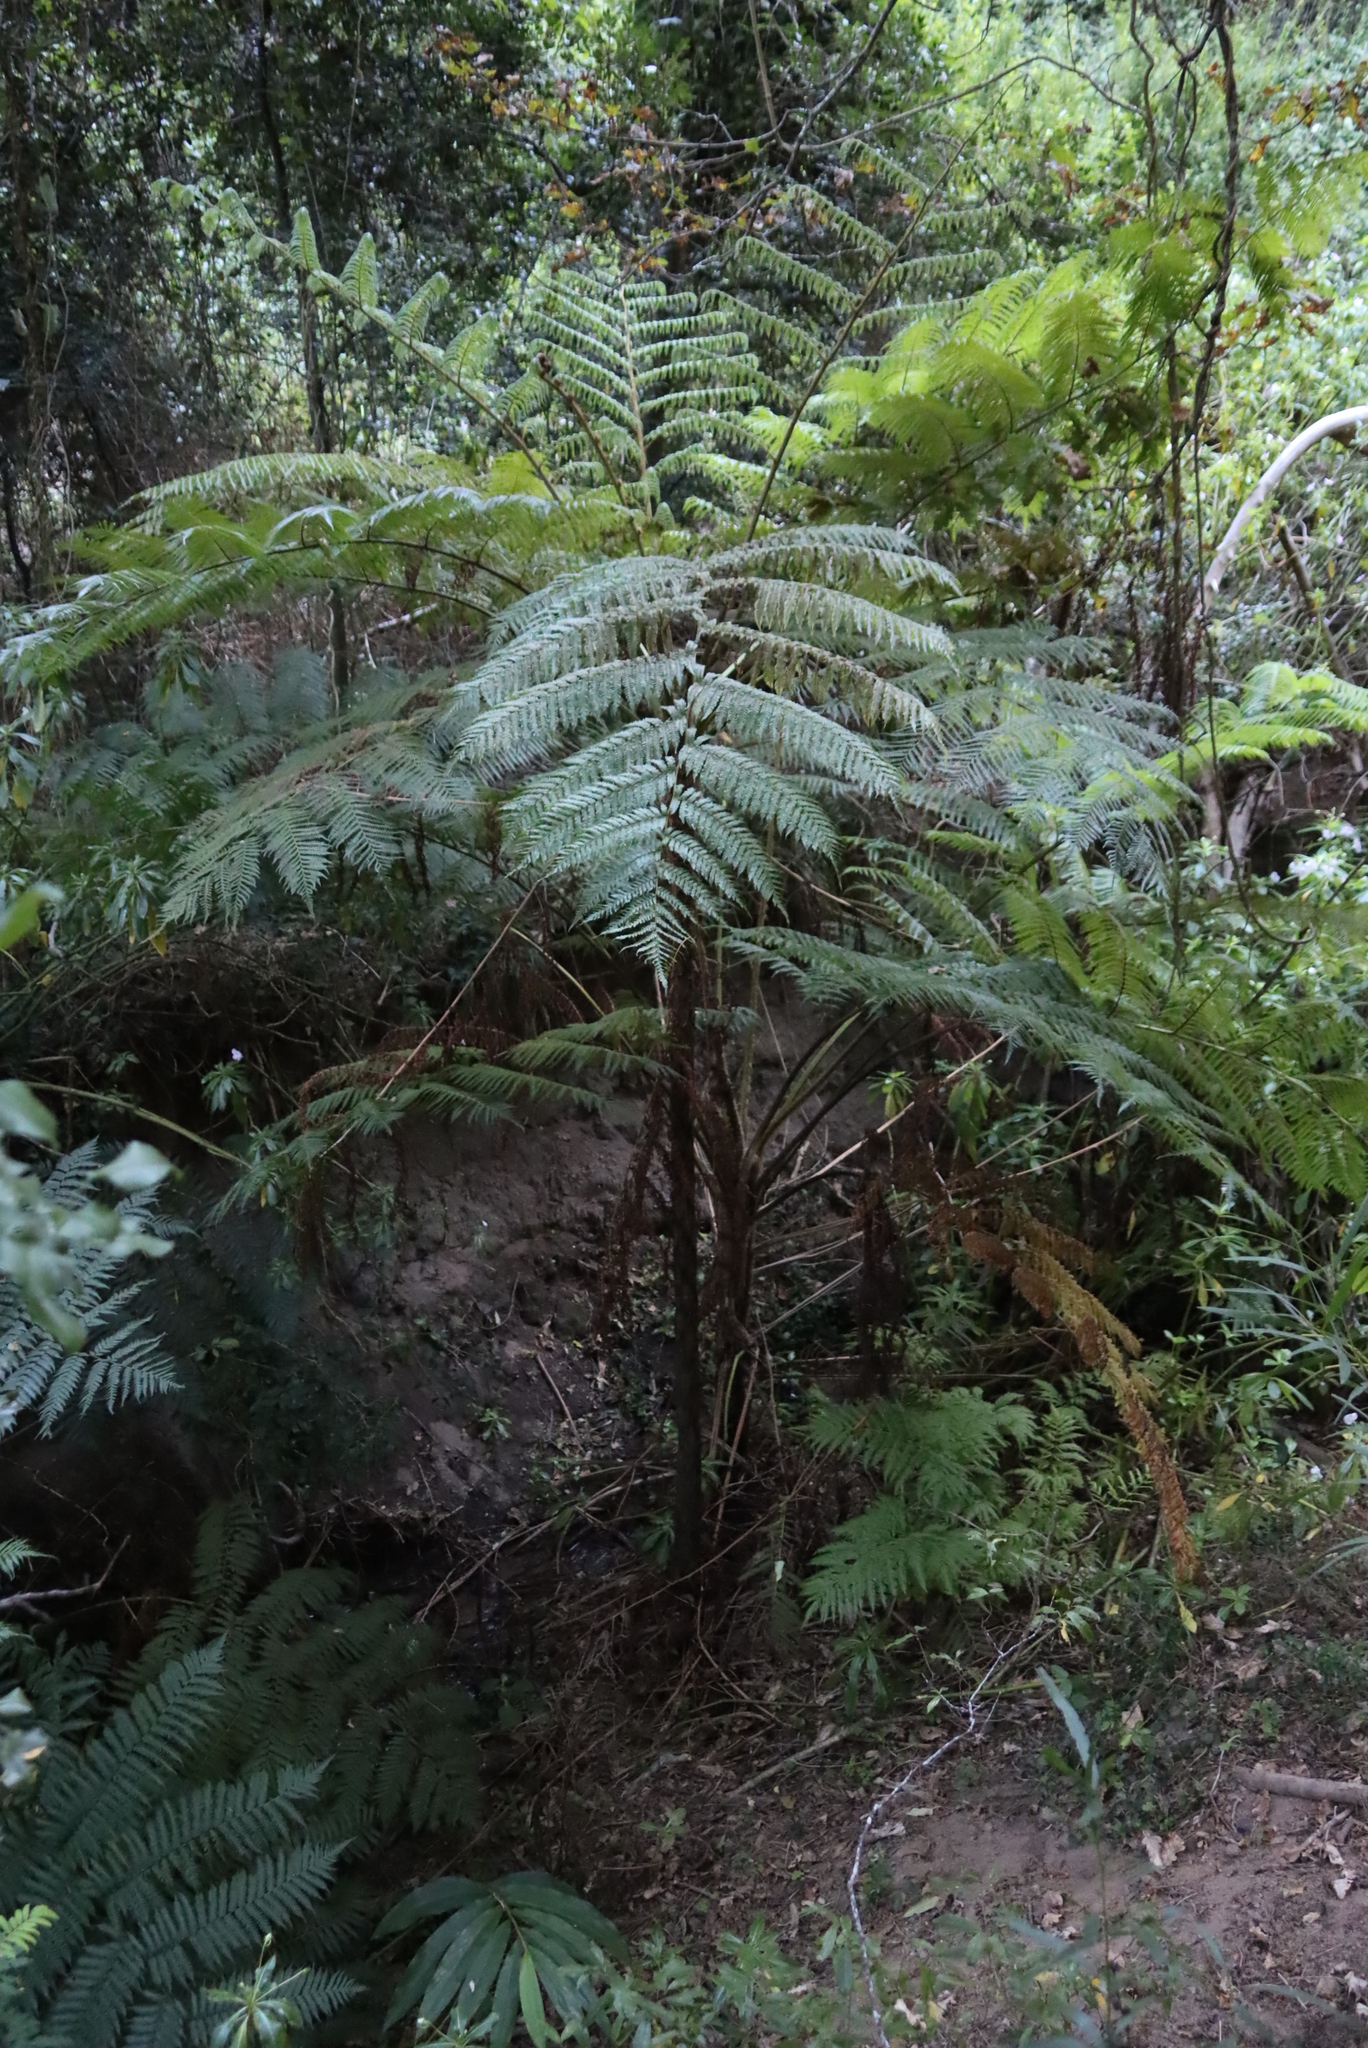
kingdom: Plantae
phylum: Tracheophyta
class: Polypodiopsida
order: Cyatheales
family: Cyatheaceae
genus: Sphaeropteris
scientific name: Sphaeropteris cooperi
